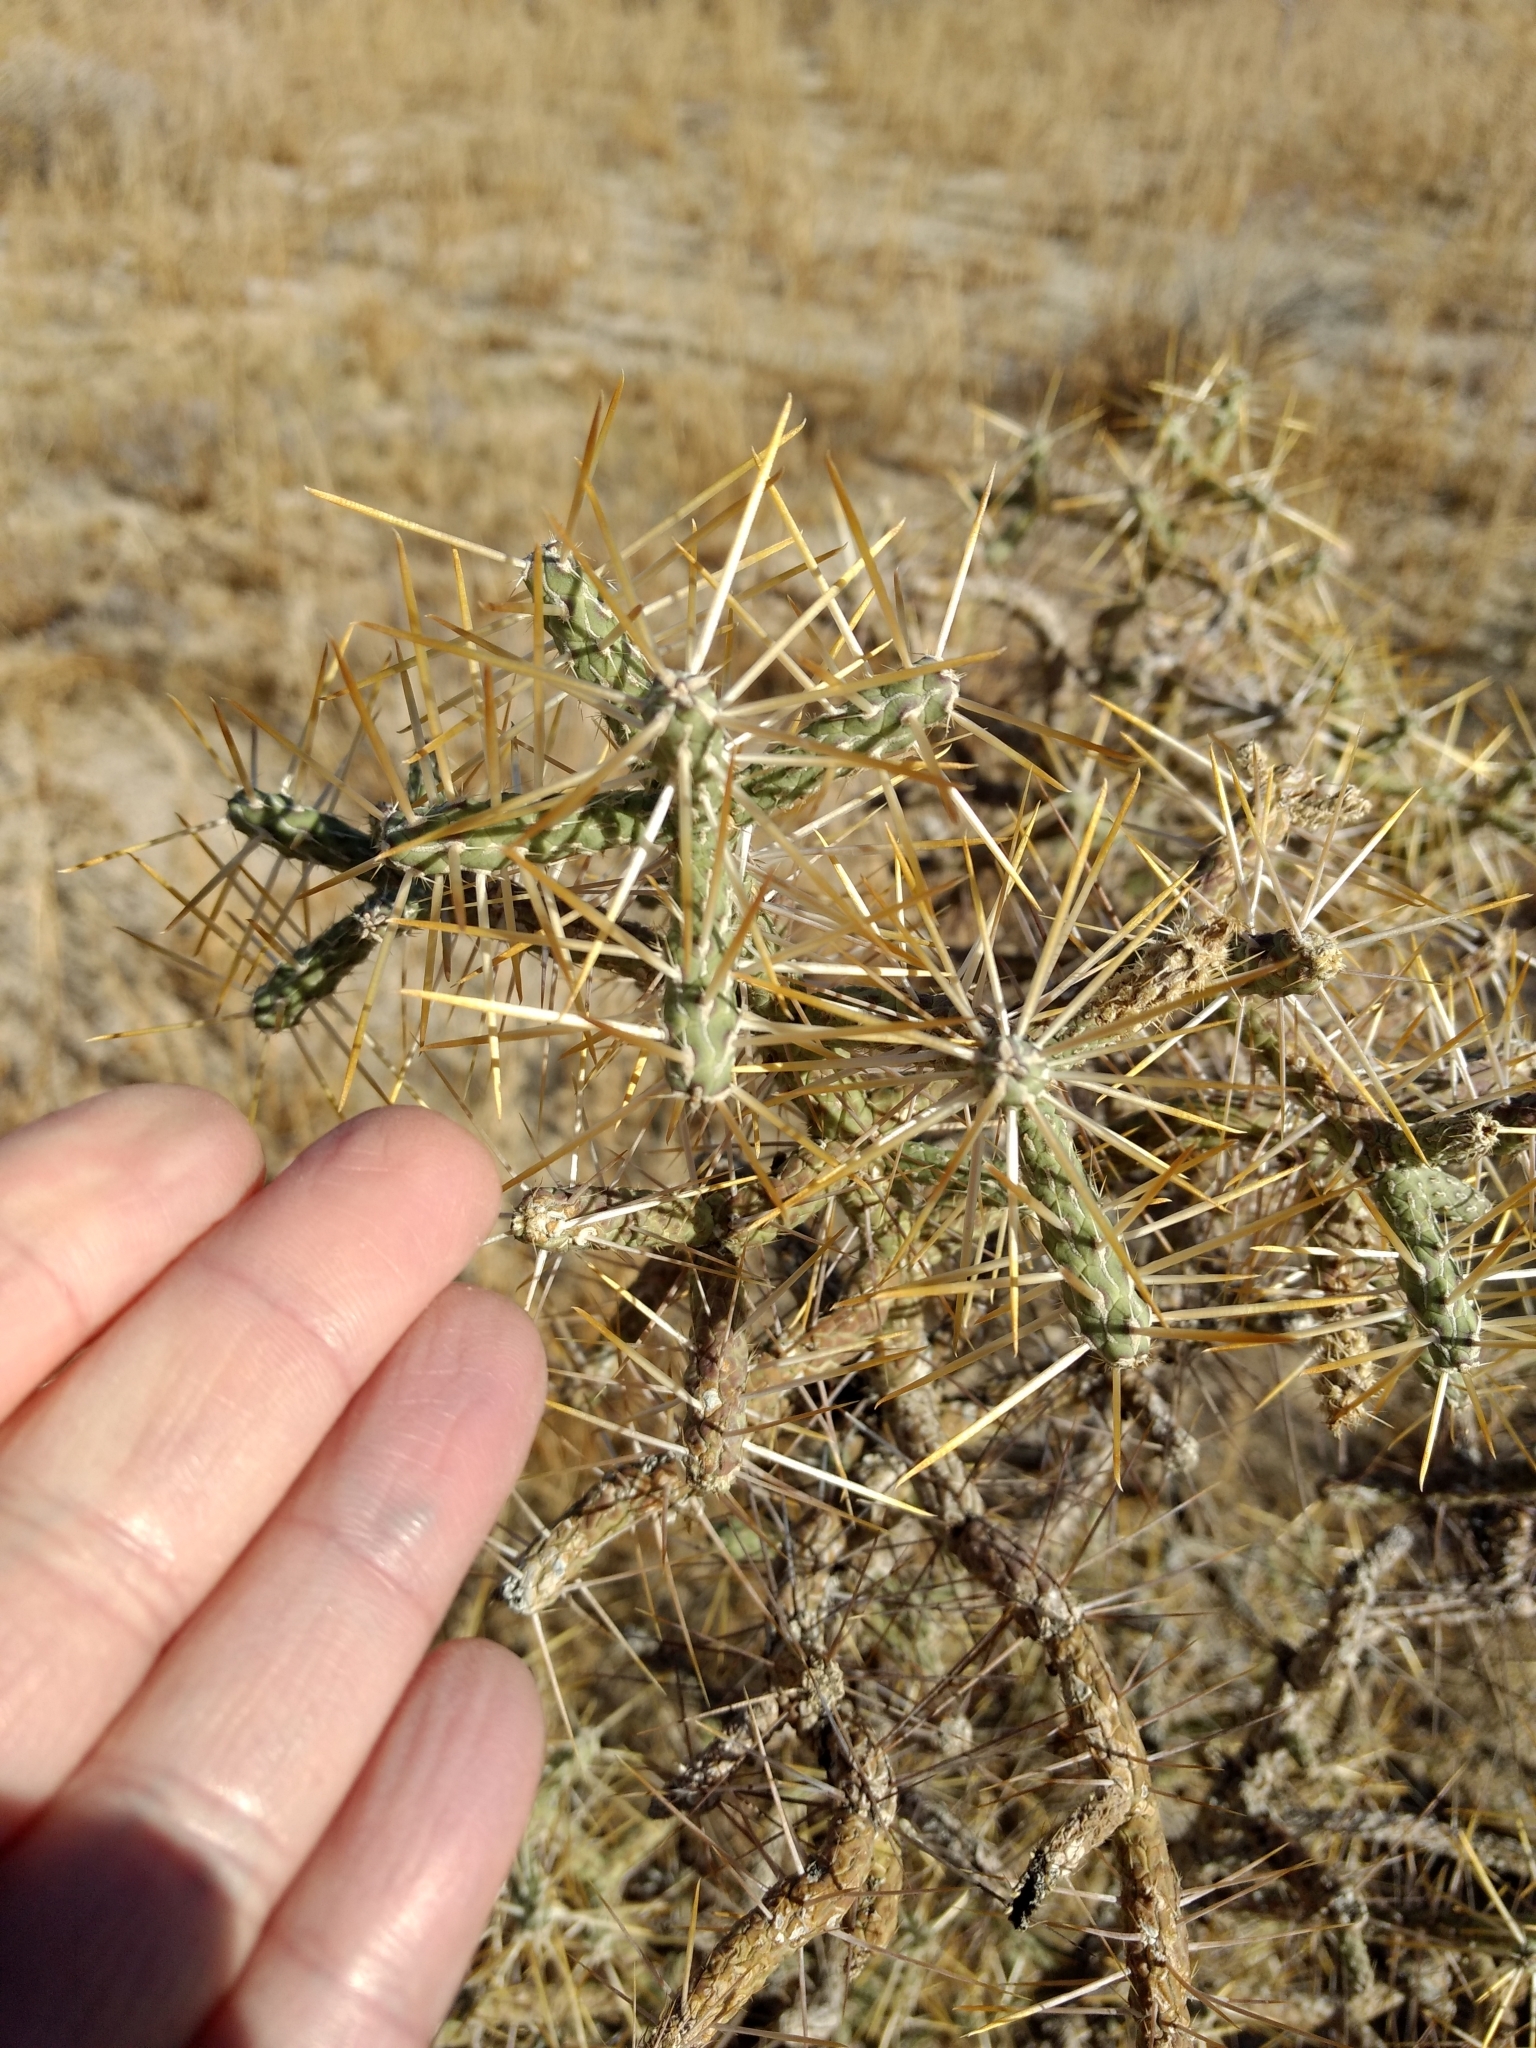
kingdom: Plantae
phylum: Tracheophyta
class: Magnoliopsida
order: Caryophyllales
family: Cactaceae
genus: Cylindropuntia
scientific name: Cylindropuntia ramosissima
